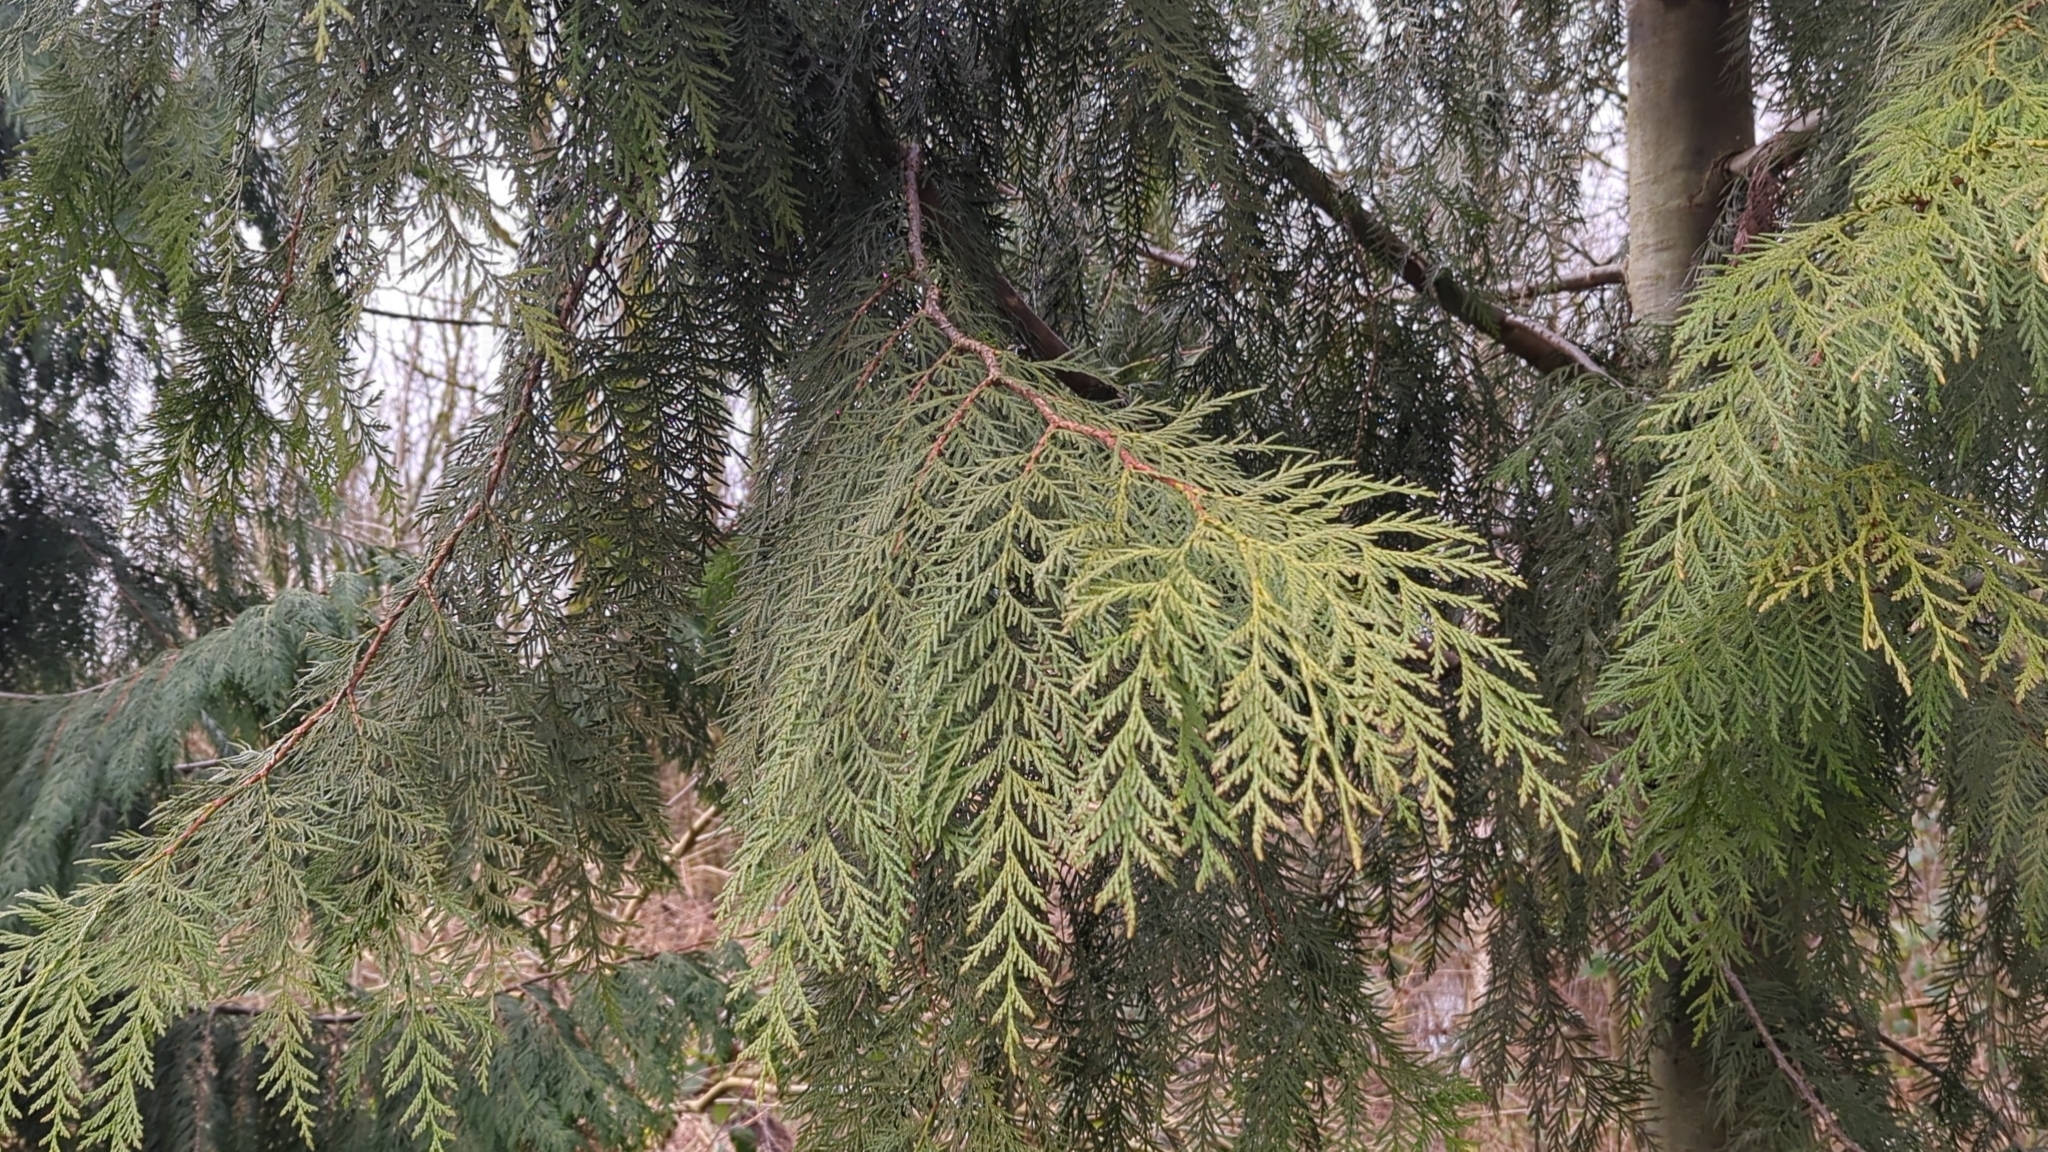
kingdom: Plantae
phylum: Tracheophyta
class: Pinopsida
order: Pinales
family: Cupressaceae
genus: Thuja
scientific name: Thuja plicata
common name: Western red-cedar
